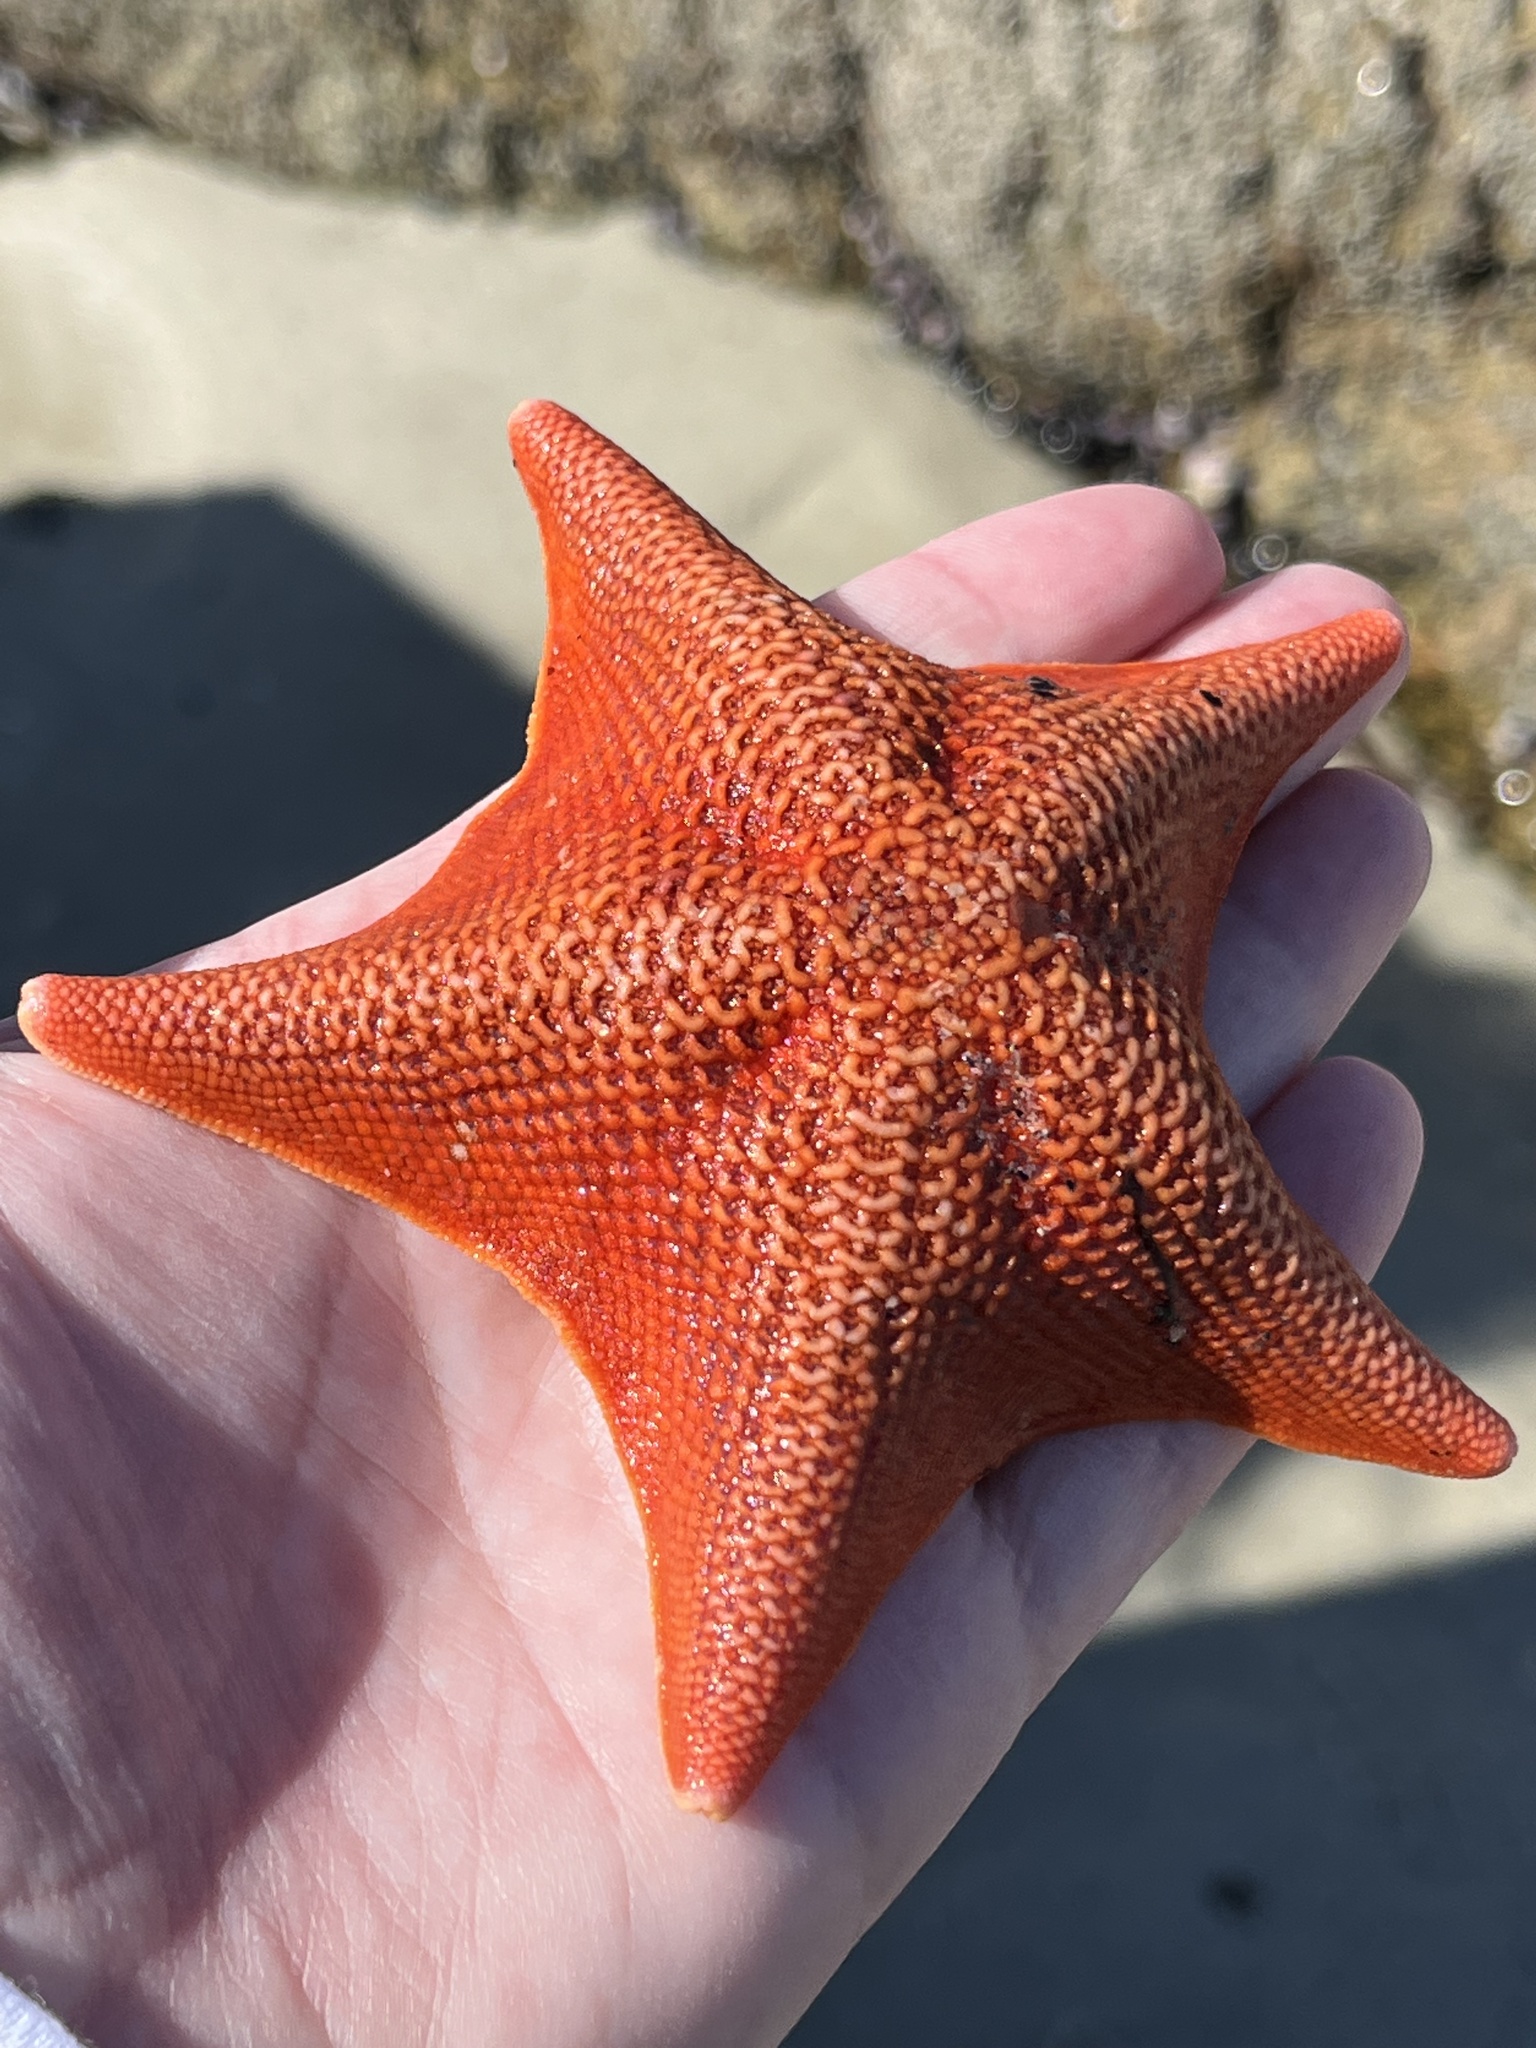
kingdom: Animalia
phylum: Echinodermata
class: Asteroidea
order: Valvatida
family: Asterinidae
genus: Patiria
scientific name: Patiria miniata
